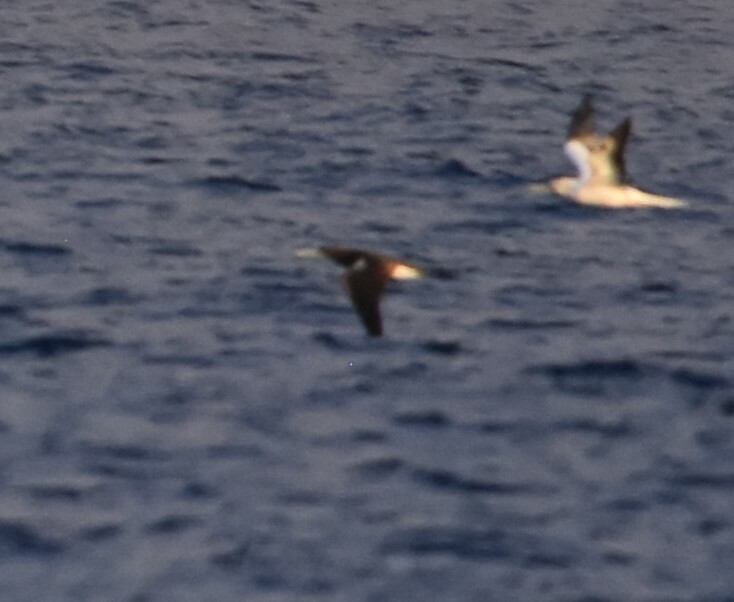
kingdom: Animalia
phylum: Chordata
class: Aves
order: Suliformes
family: Sulidae
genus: Sula
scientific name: Sula leucogaster
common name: Brown booby
